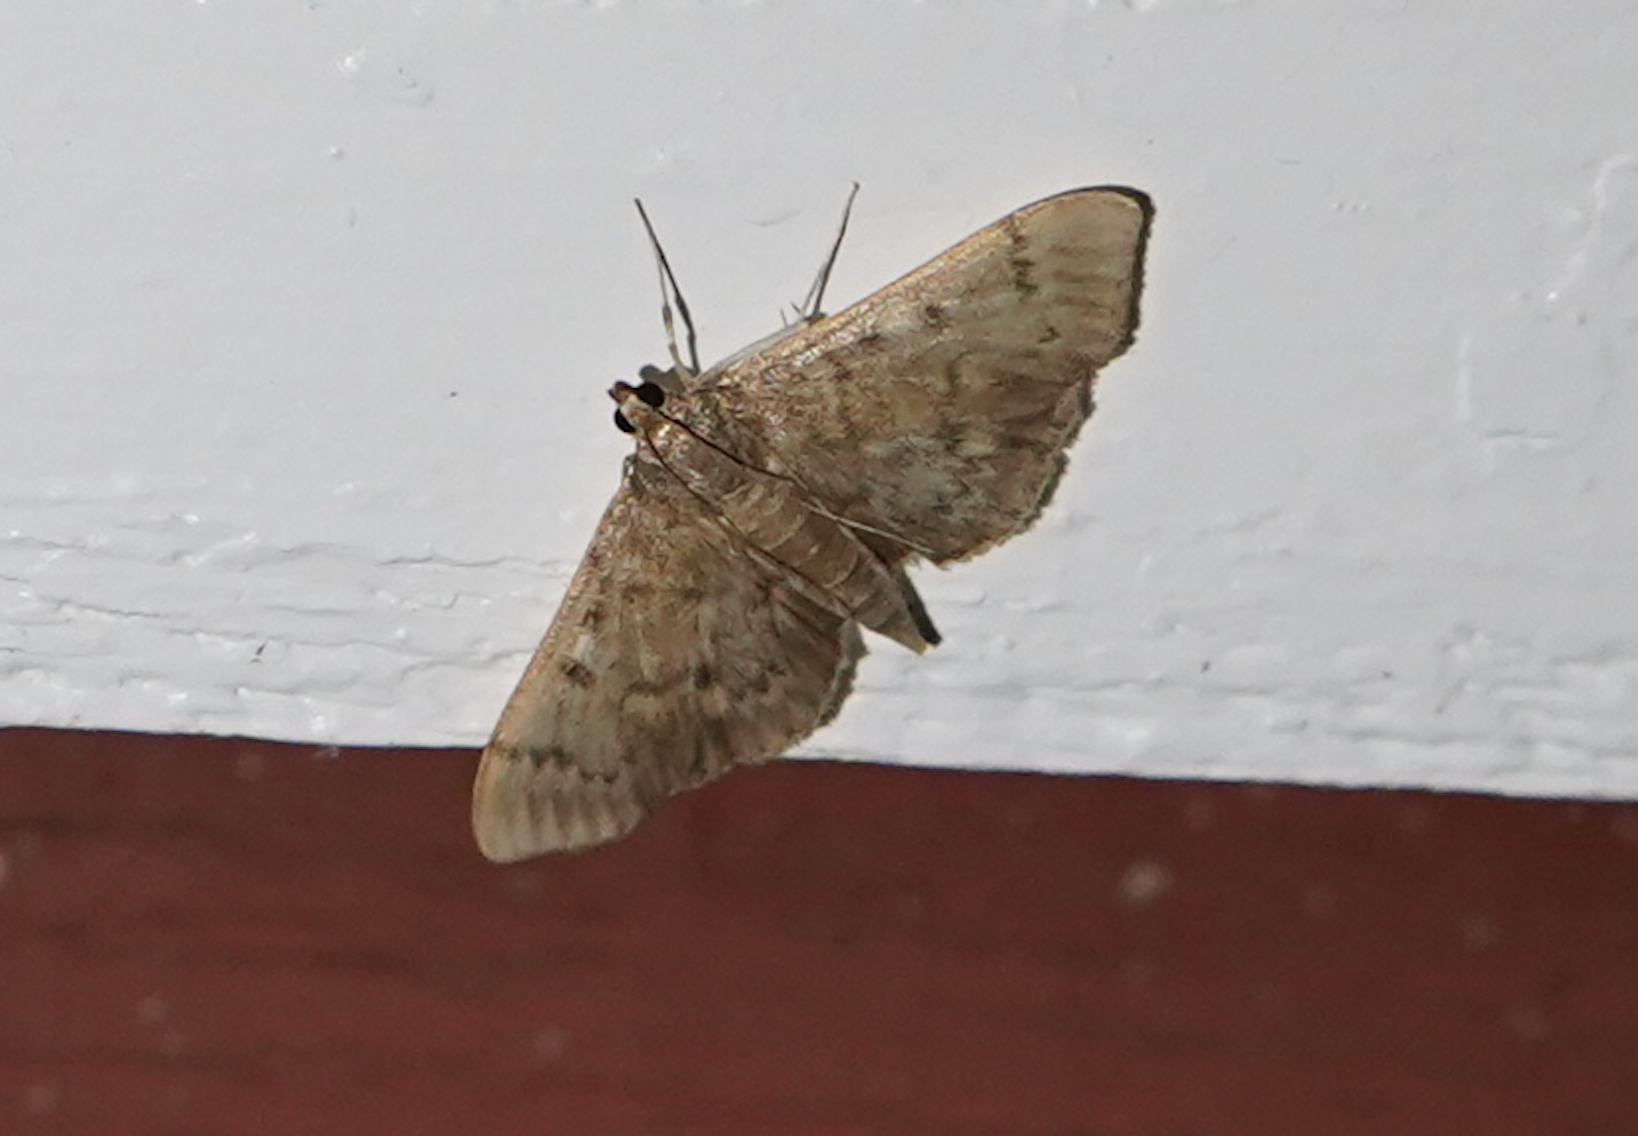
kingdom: Animalia
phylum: Arthropoda
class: Insecta
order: Lepidoptera
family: Crambidae
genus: Herpetogramma
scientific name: Herpetogramma aeglealis
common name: Serpentine webworm moth
